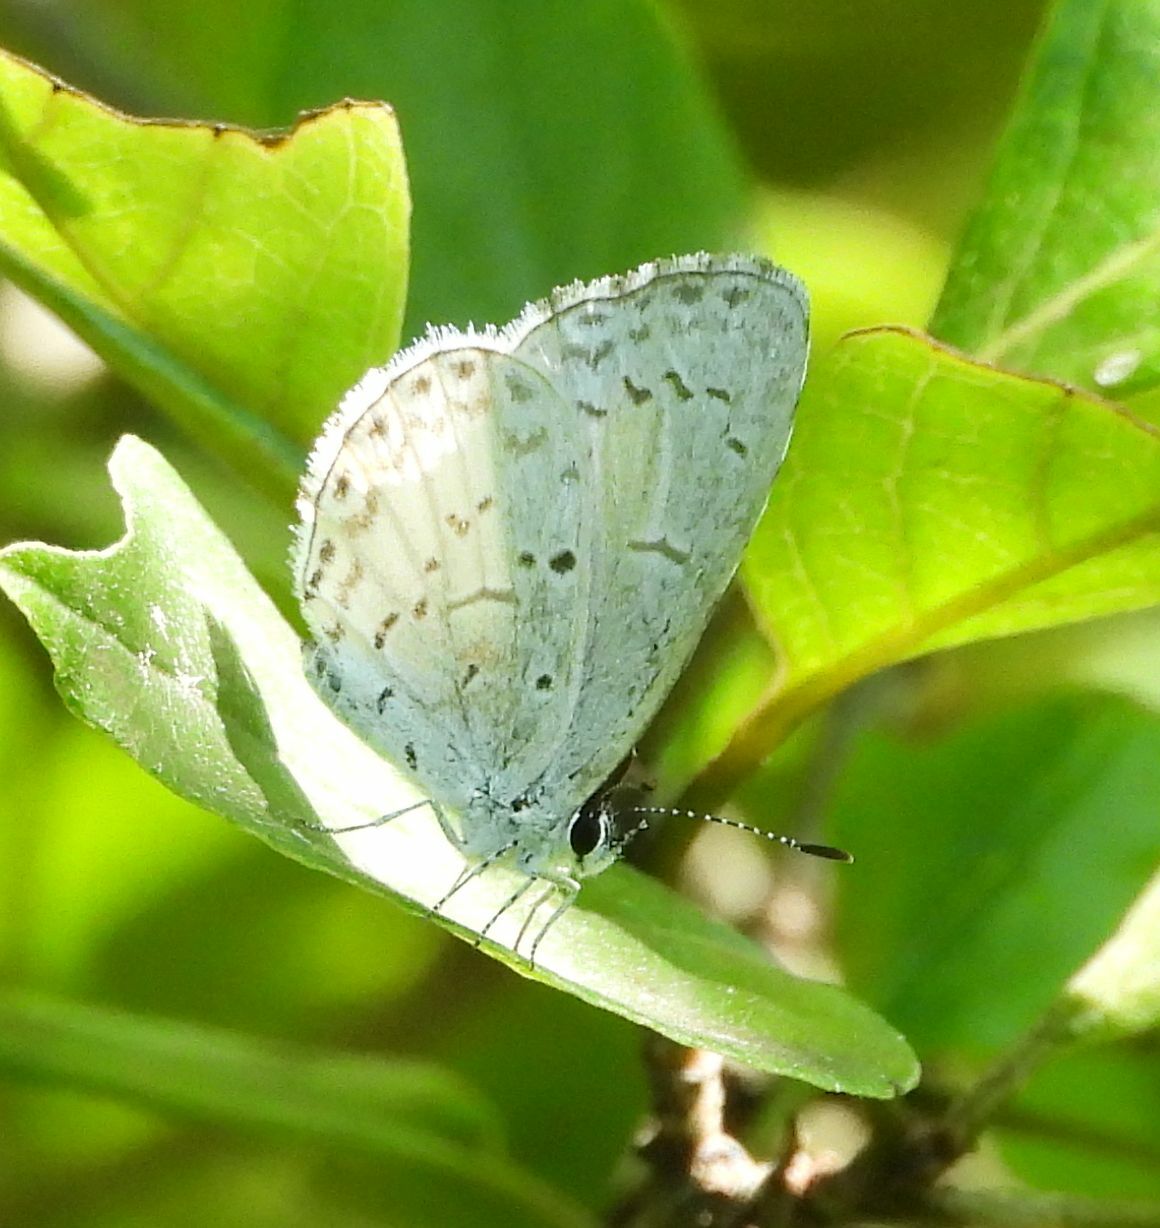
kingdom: Animalia
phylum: Arthropoda
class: Insecta
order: Lepidoptera
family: Lycaenidae
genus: Celastrina
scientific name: Celastrina lucia
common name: Lucia azure
